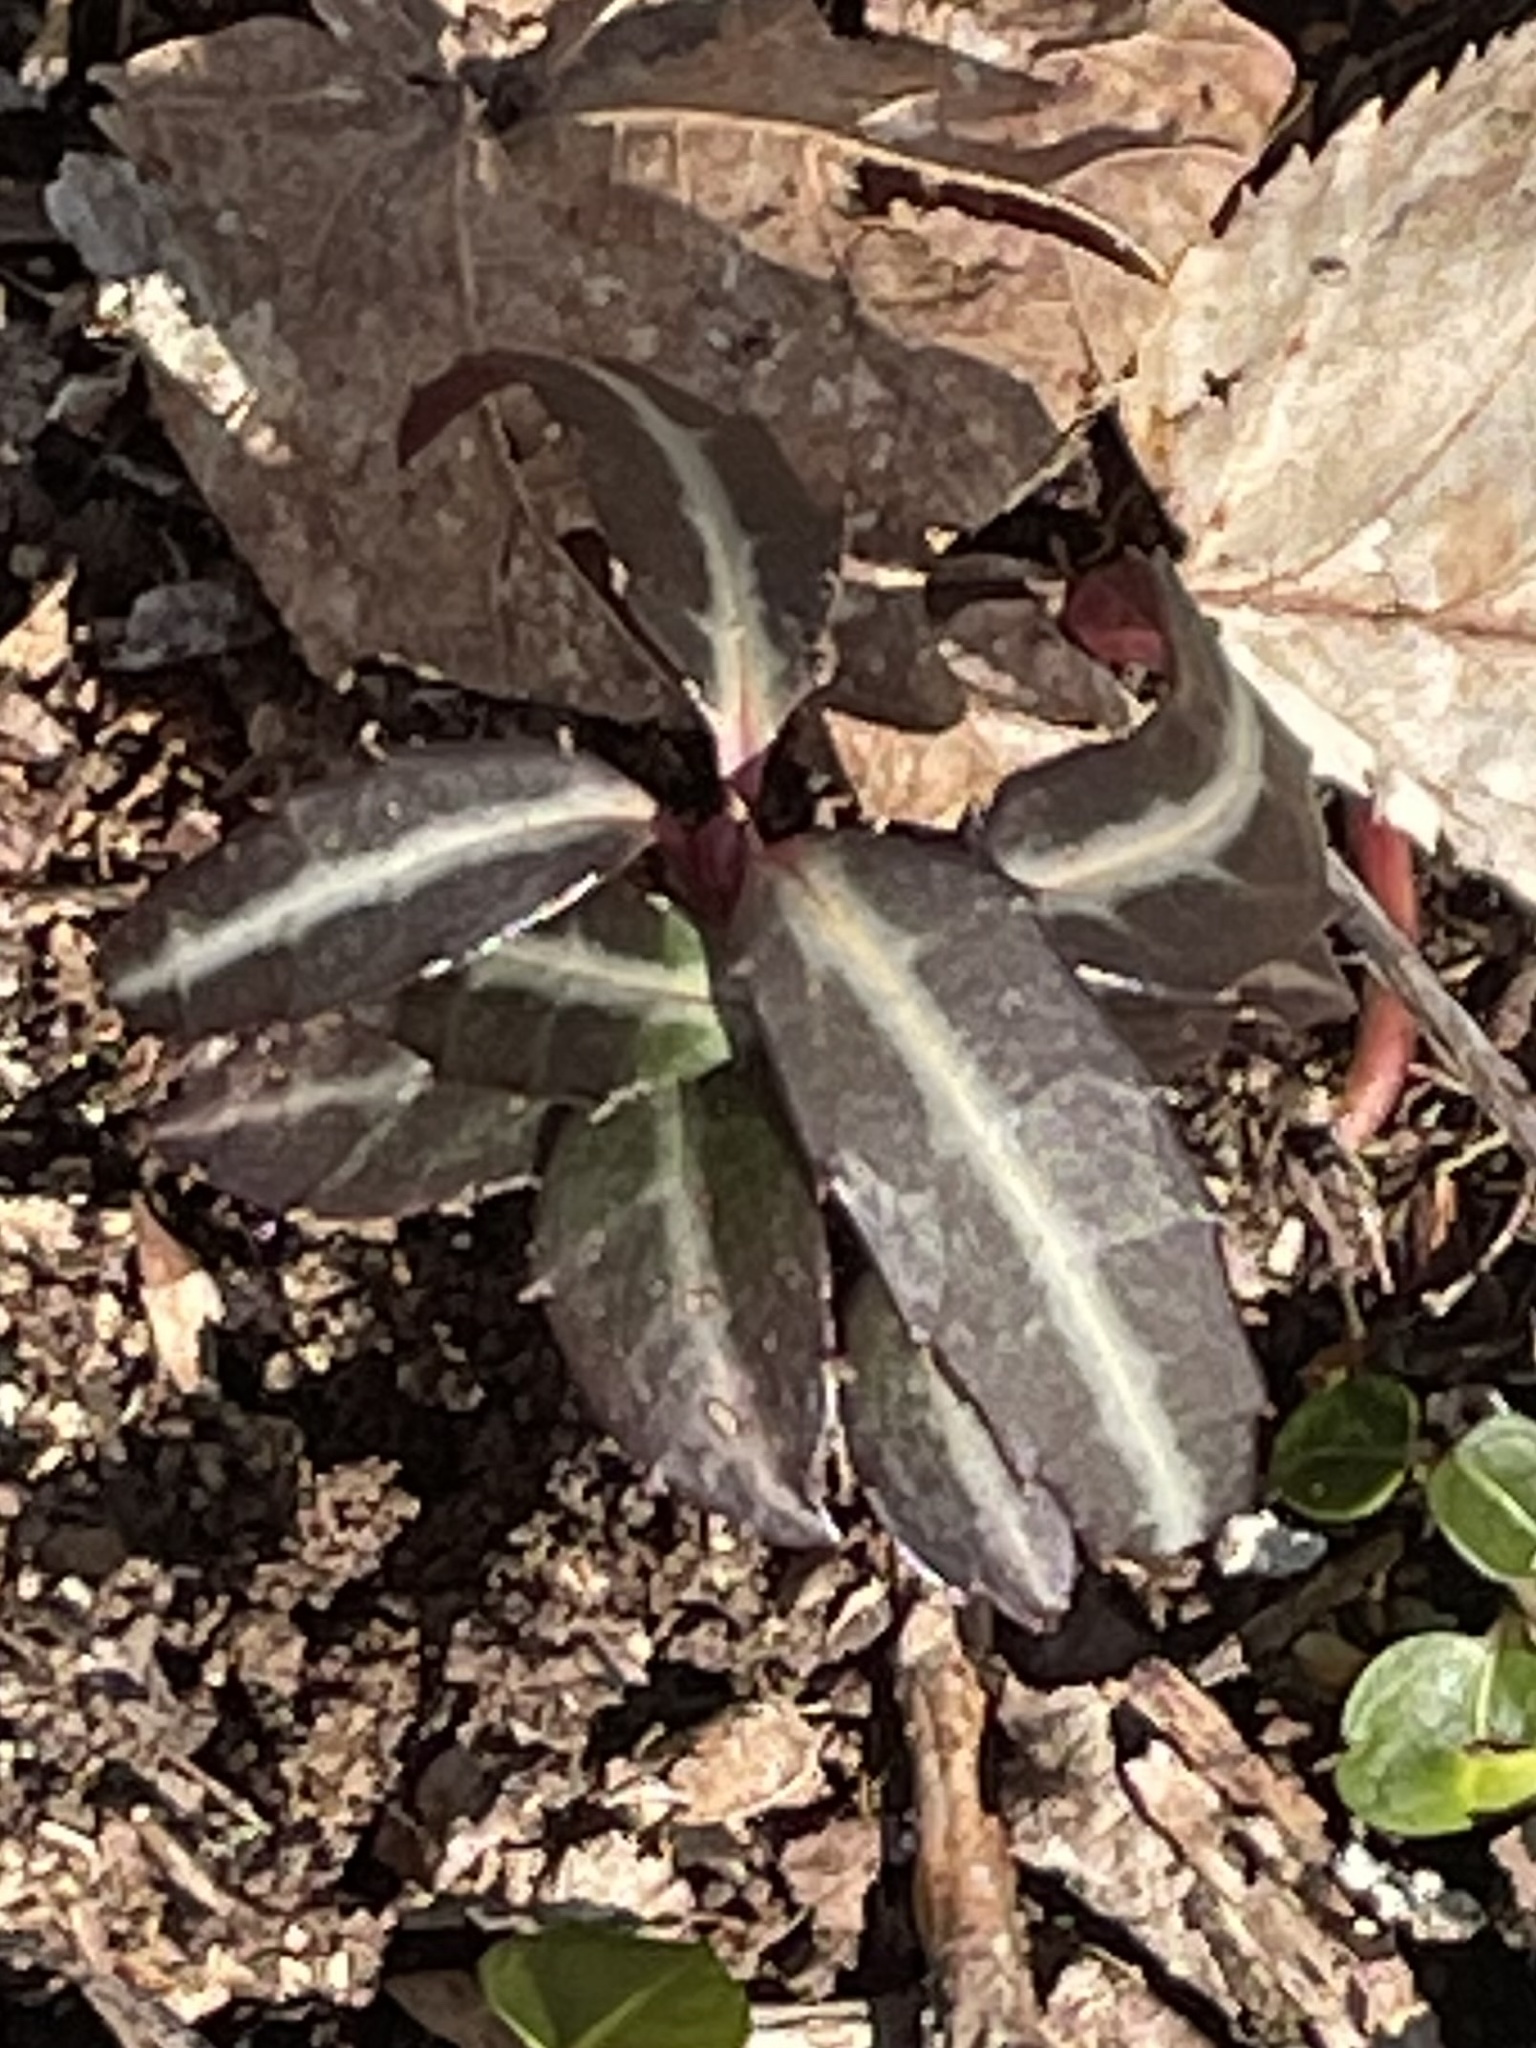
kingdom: Plantae
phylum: Tracheophyta
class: Magnoliopsida
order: Ericales
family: Ericaceae
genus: Chimaphila
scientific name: Chimaphila maculata
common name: Spotted pipsissewa
